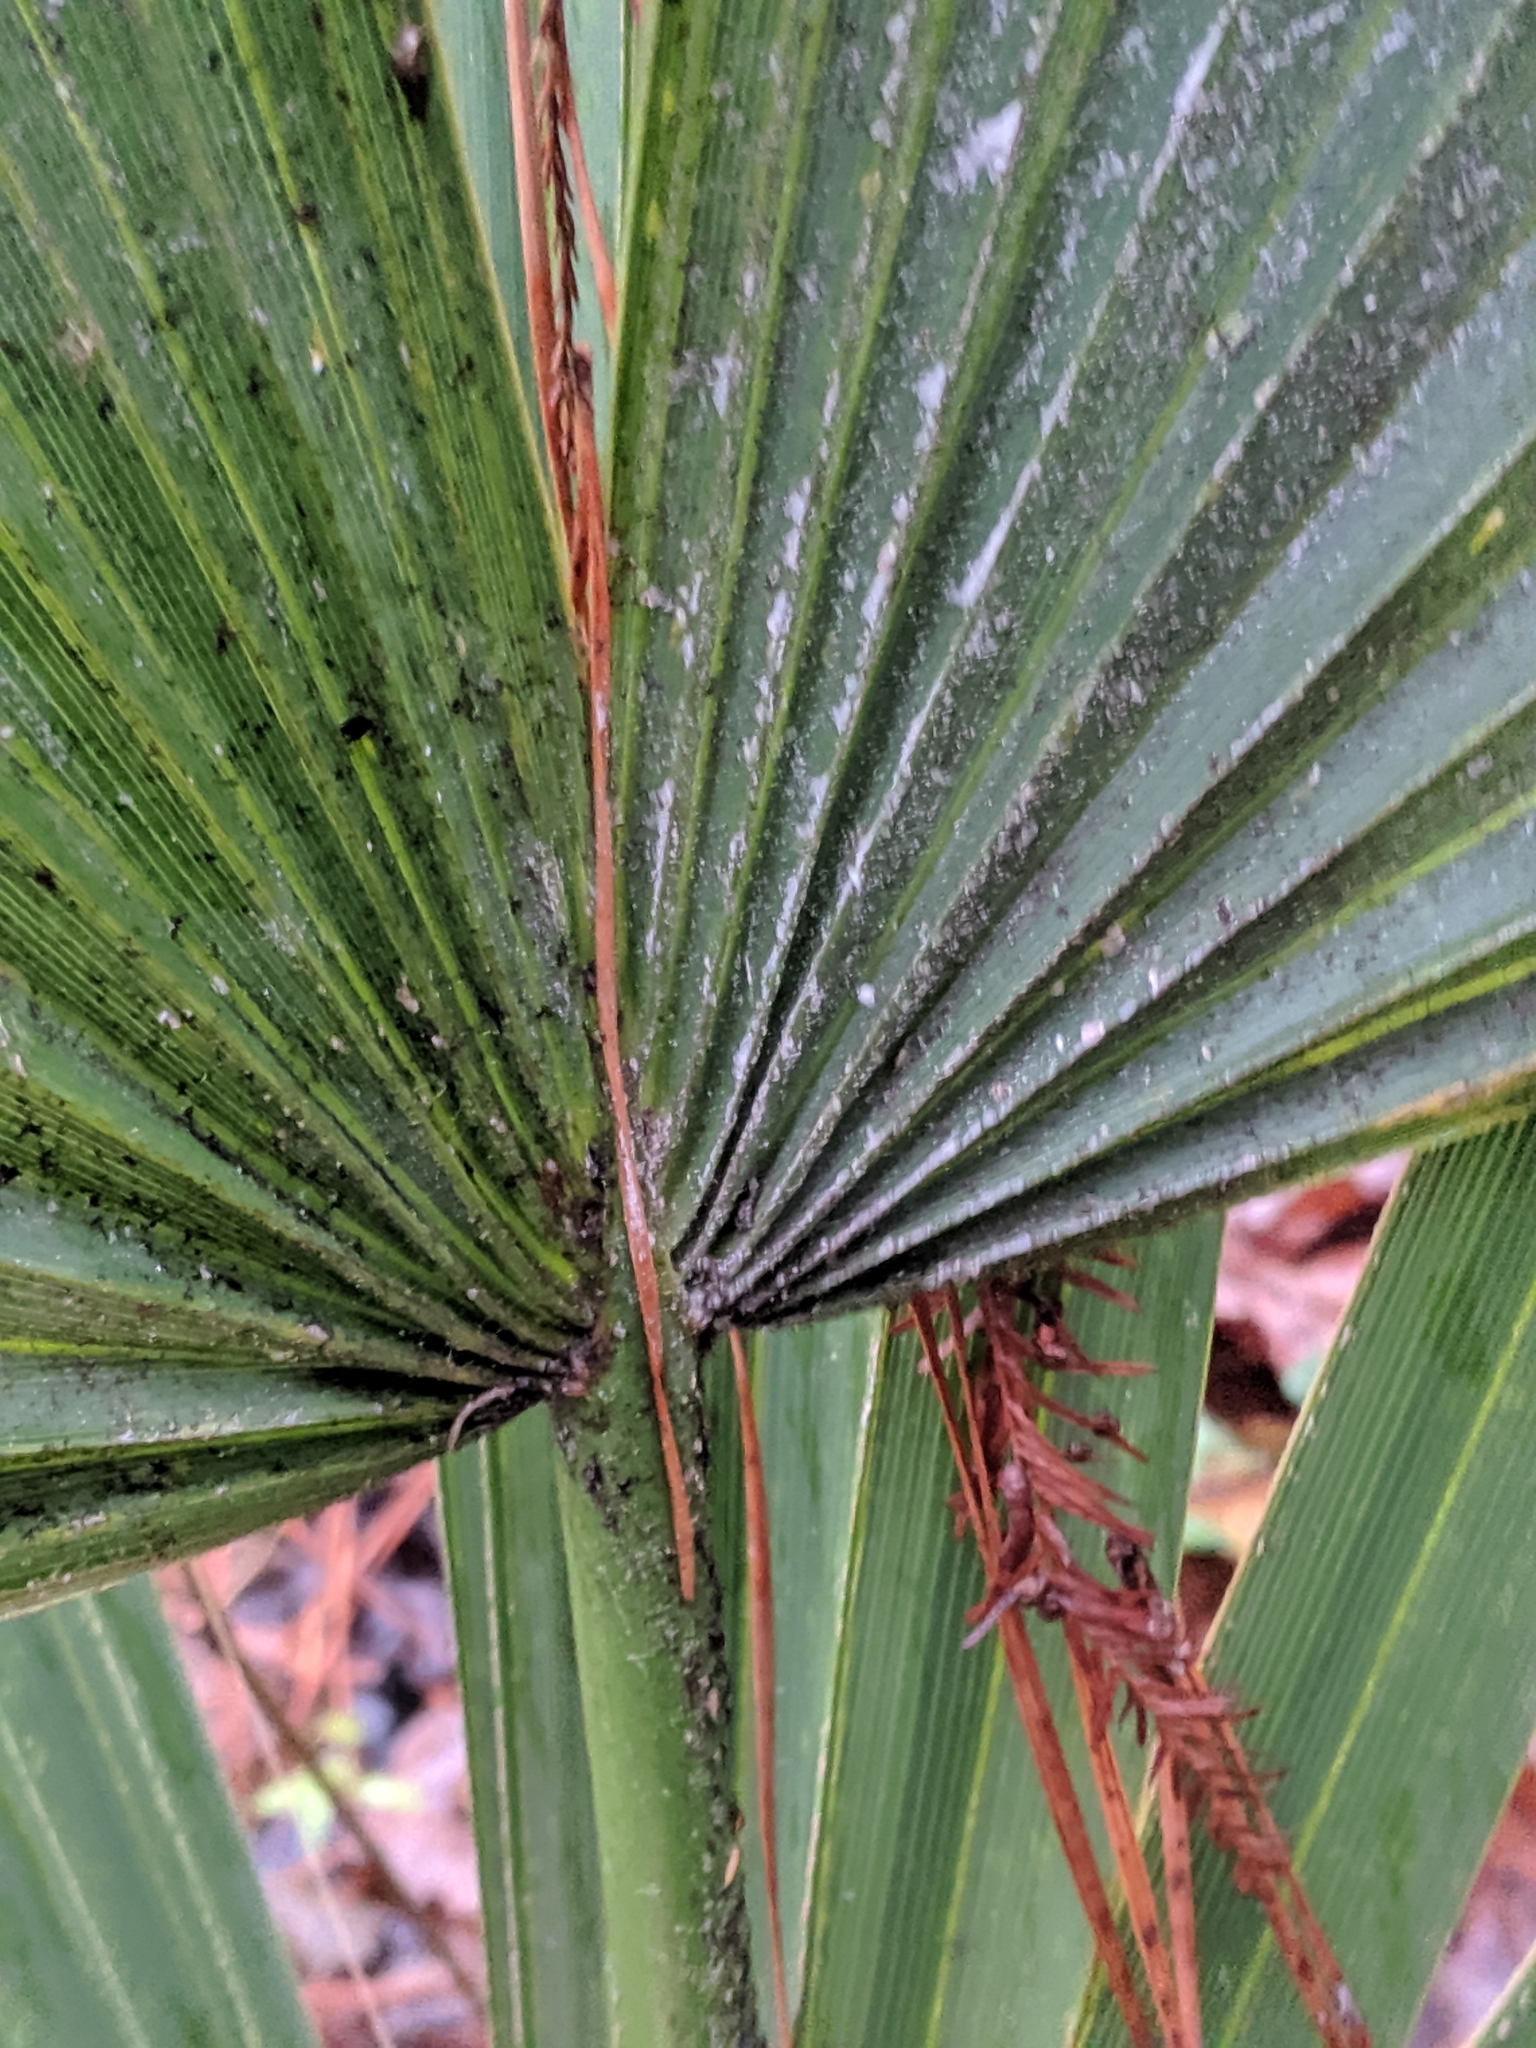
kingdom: Plantae
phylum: Tracheophyta
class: Liliopsida
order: Arecales
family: Arecaceae
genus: Sabal
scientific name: Sabal minor
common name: Dwarf palmetto
